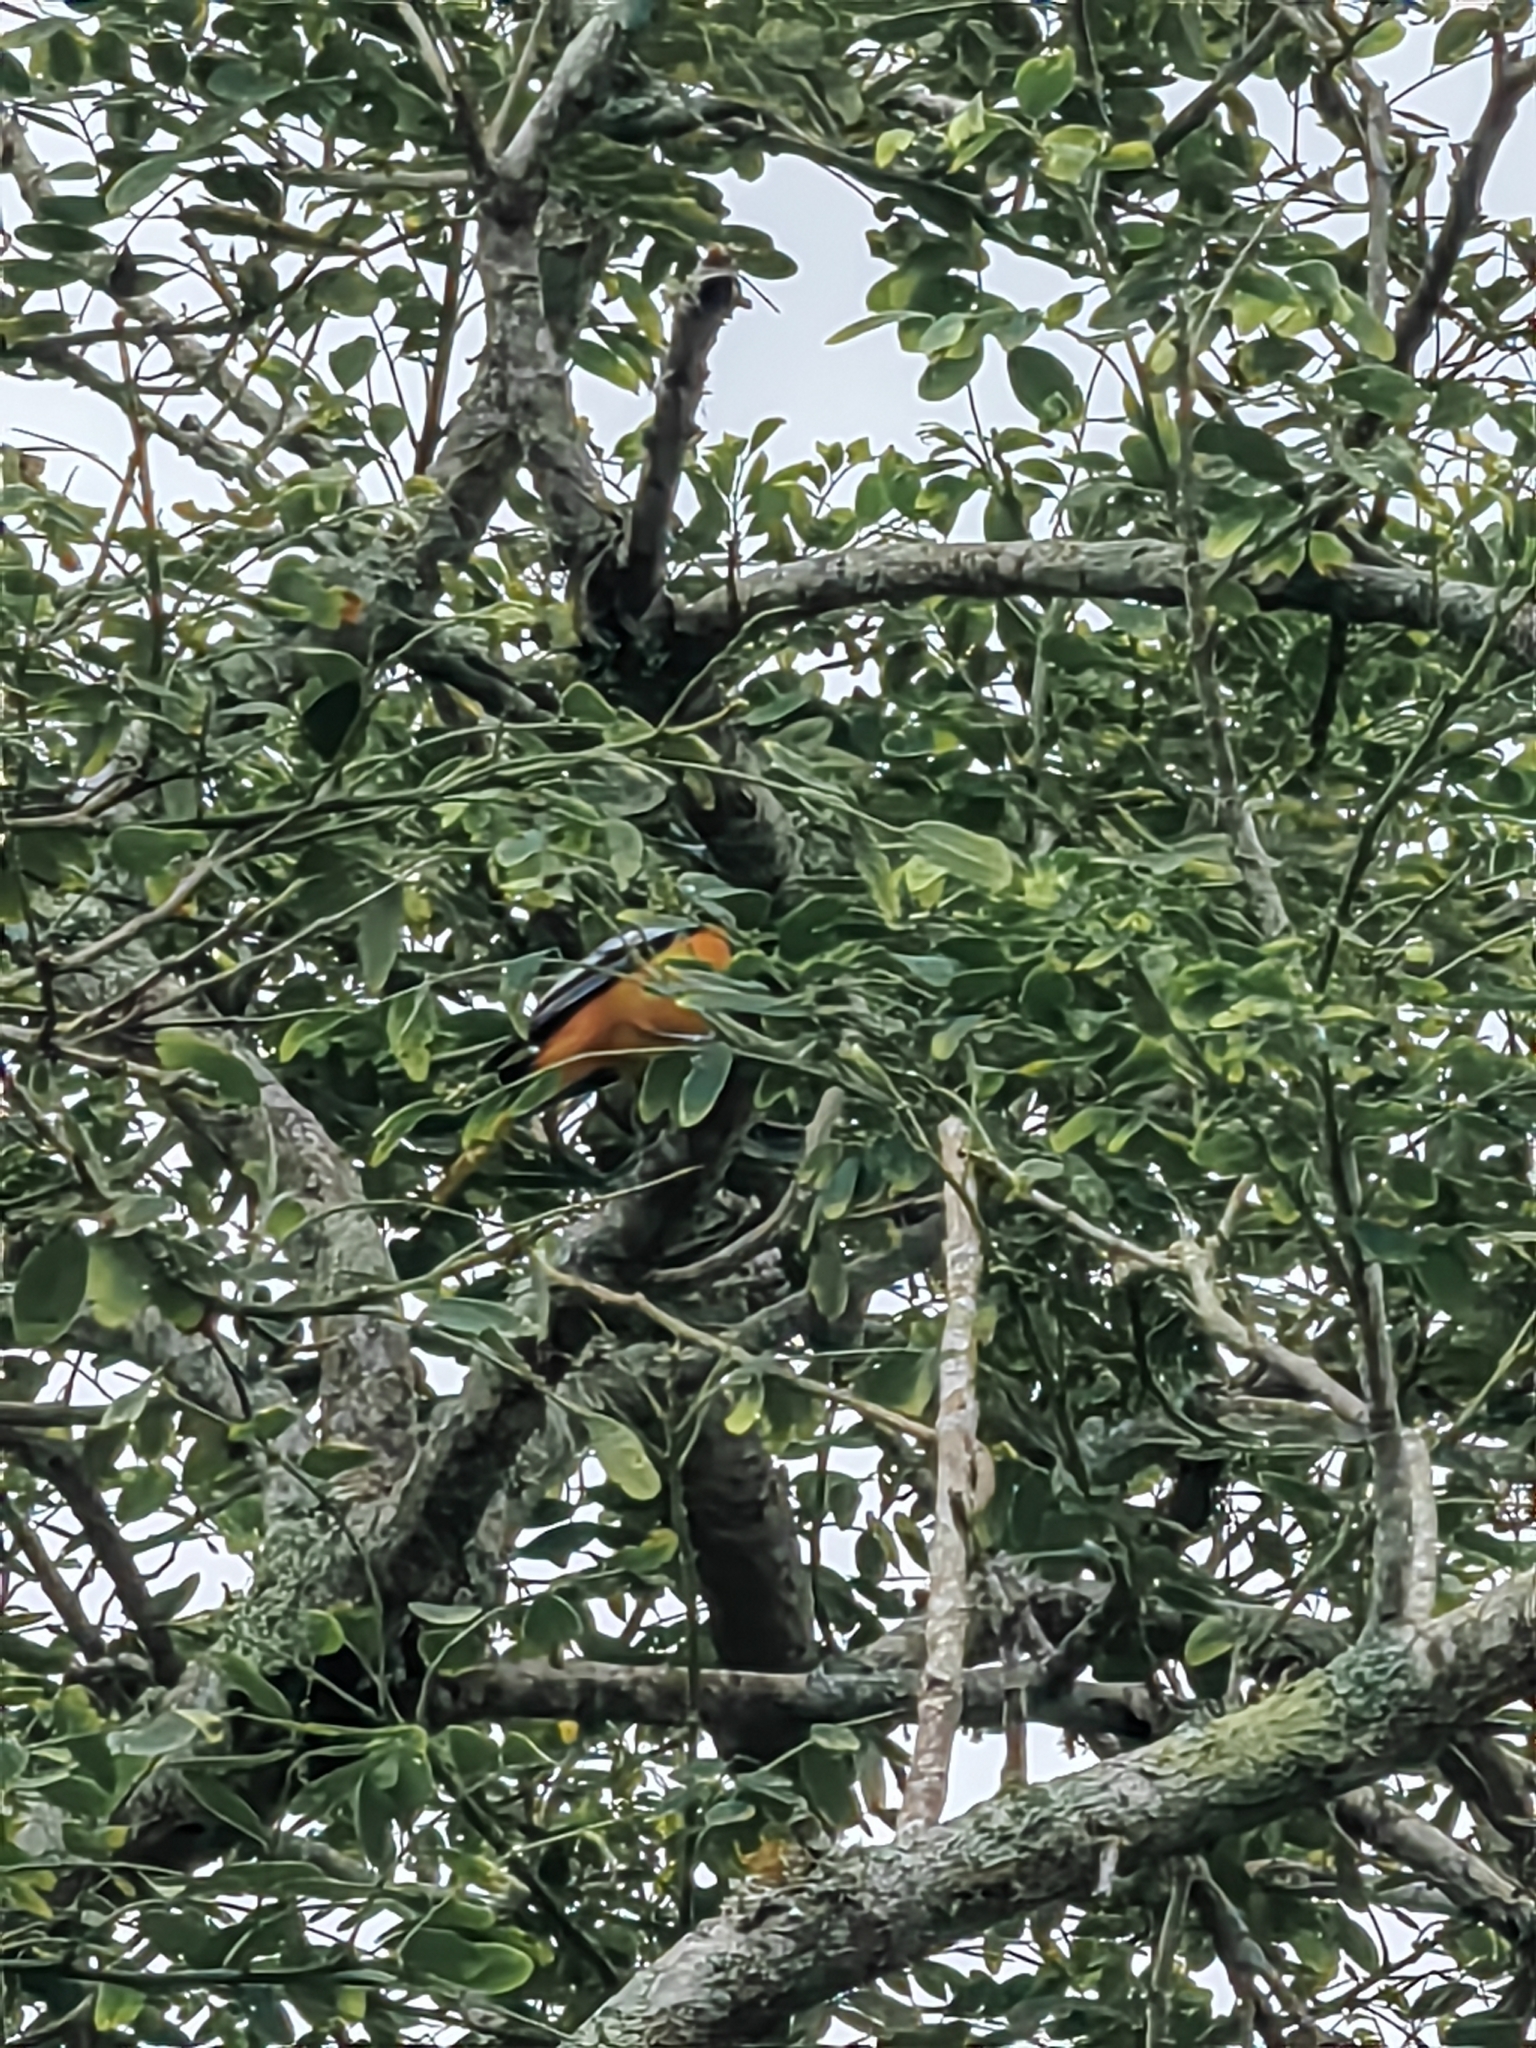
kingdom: Animalia
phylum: Chordata
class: Aves
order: Passeriformes
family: Icteridae
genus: Icterus
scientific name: Icterus galbula
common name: Baltimore oriole
